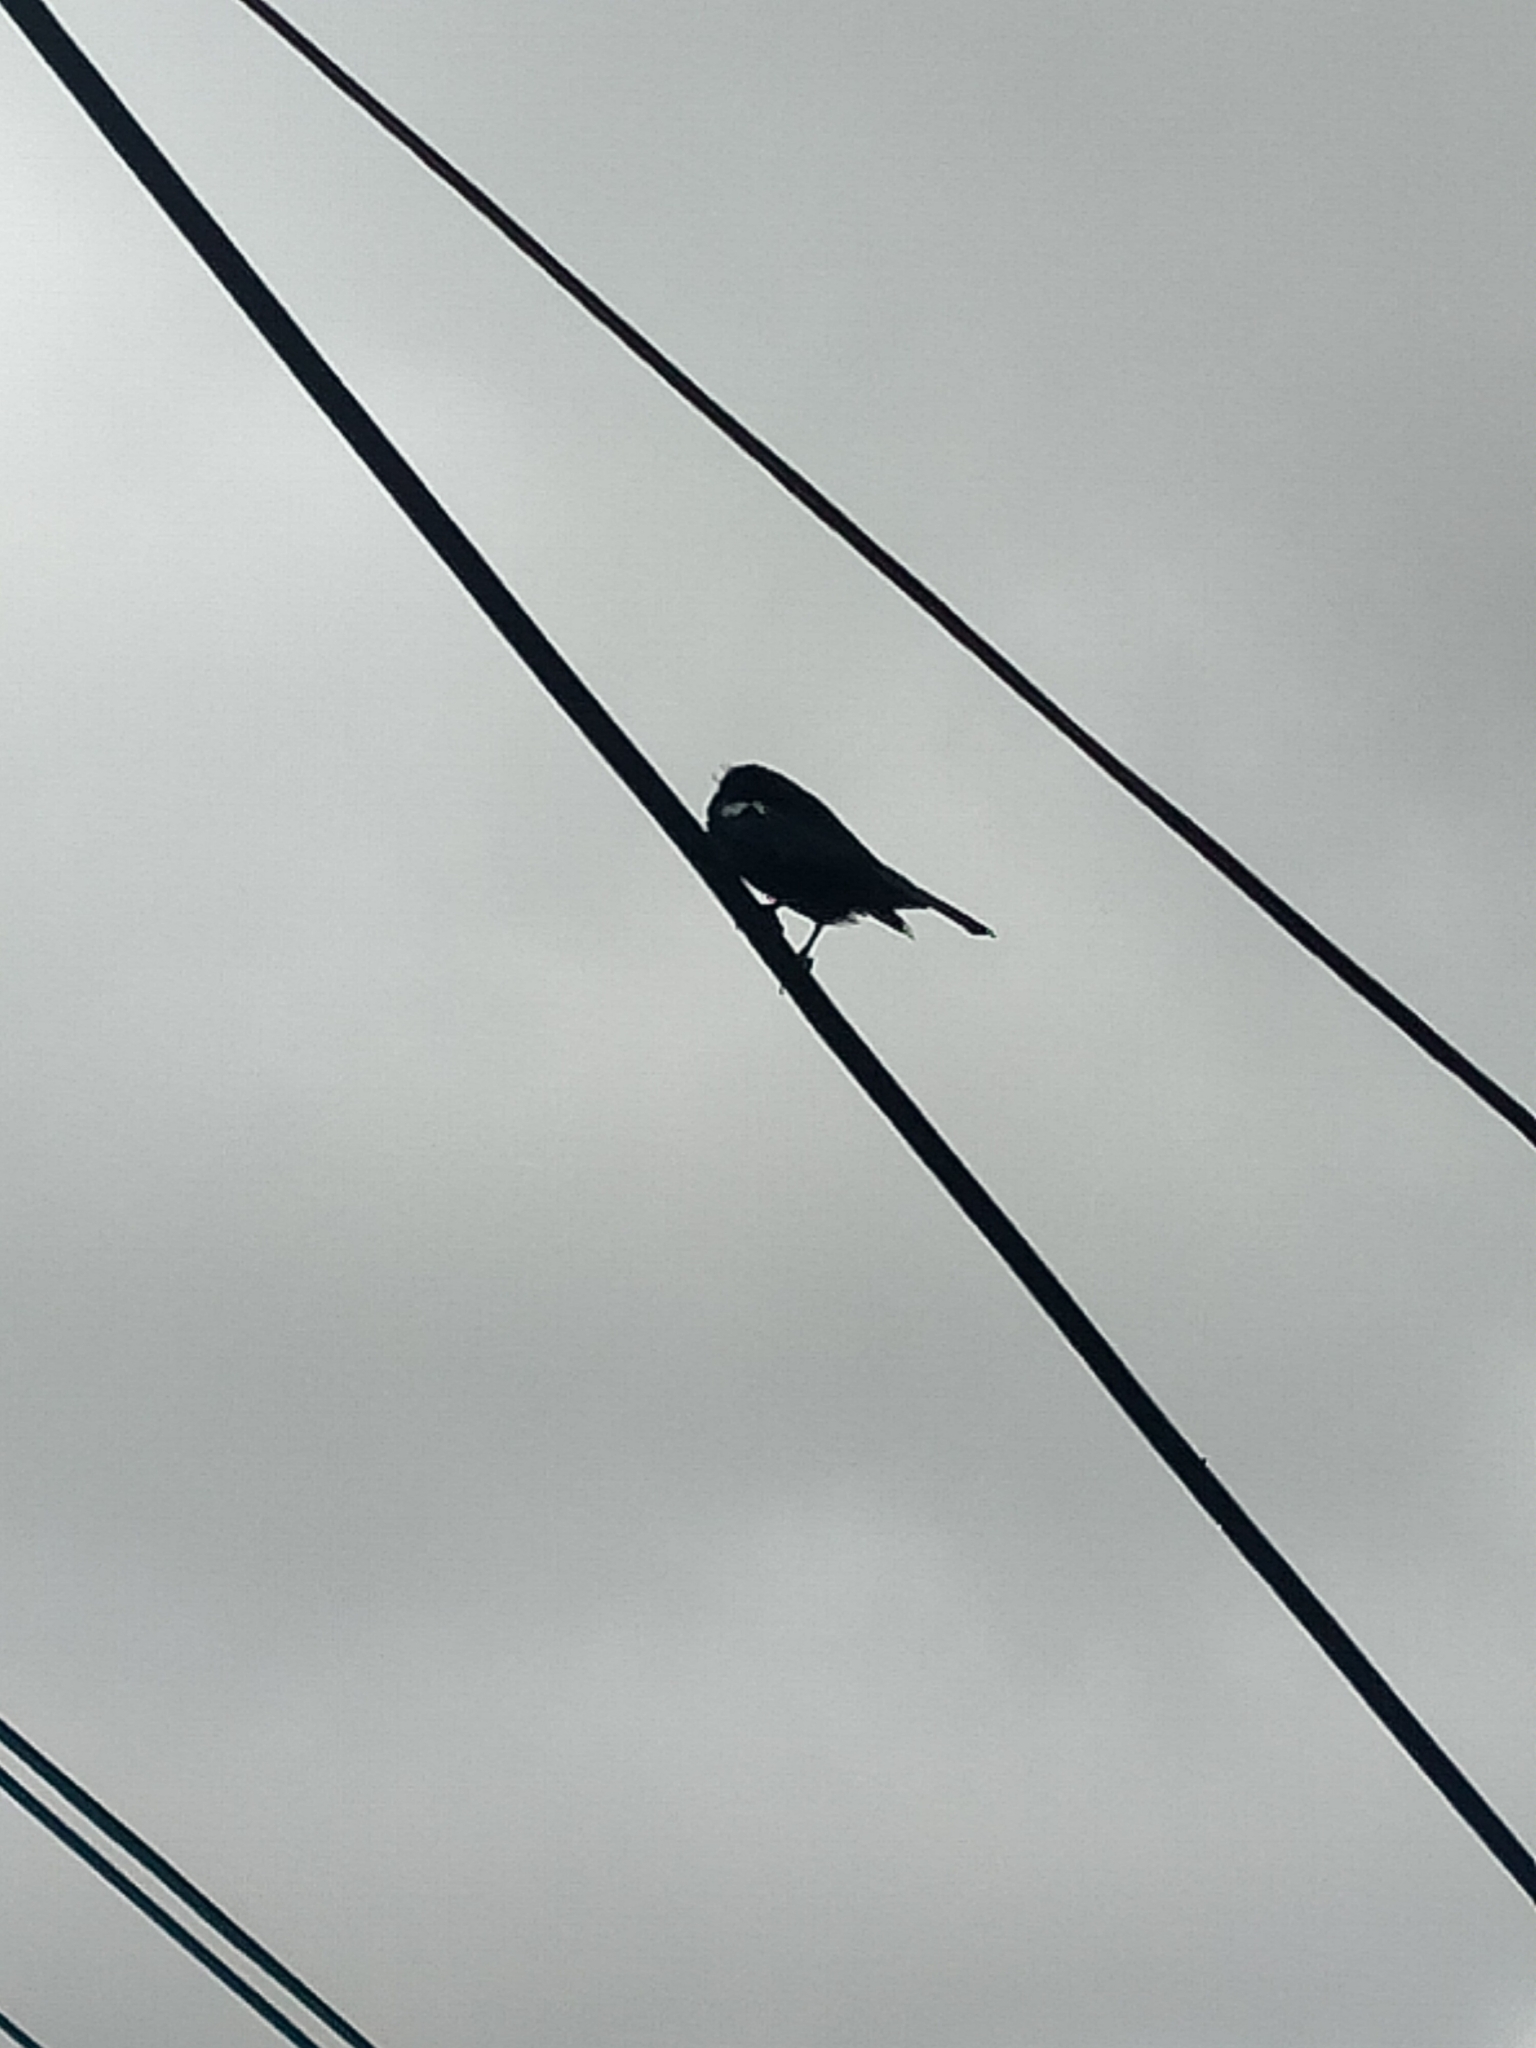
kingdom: Animalia
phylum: Chordata
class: Aves
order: Passeriformes
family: Meliphagidae
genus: Prosthemadera
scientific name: Prosthemadera novaeseelandiae
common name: Tui
